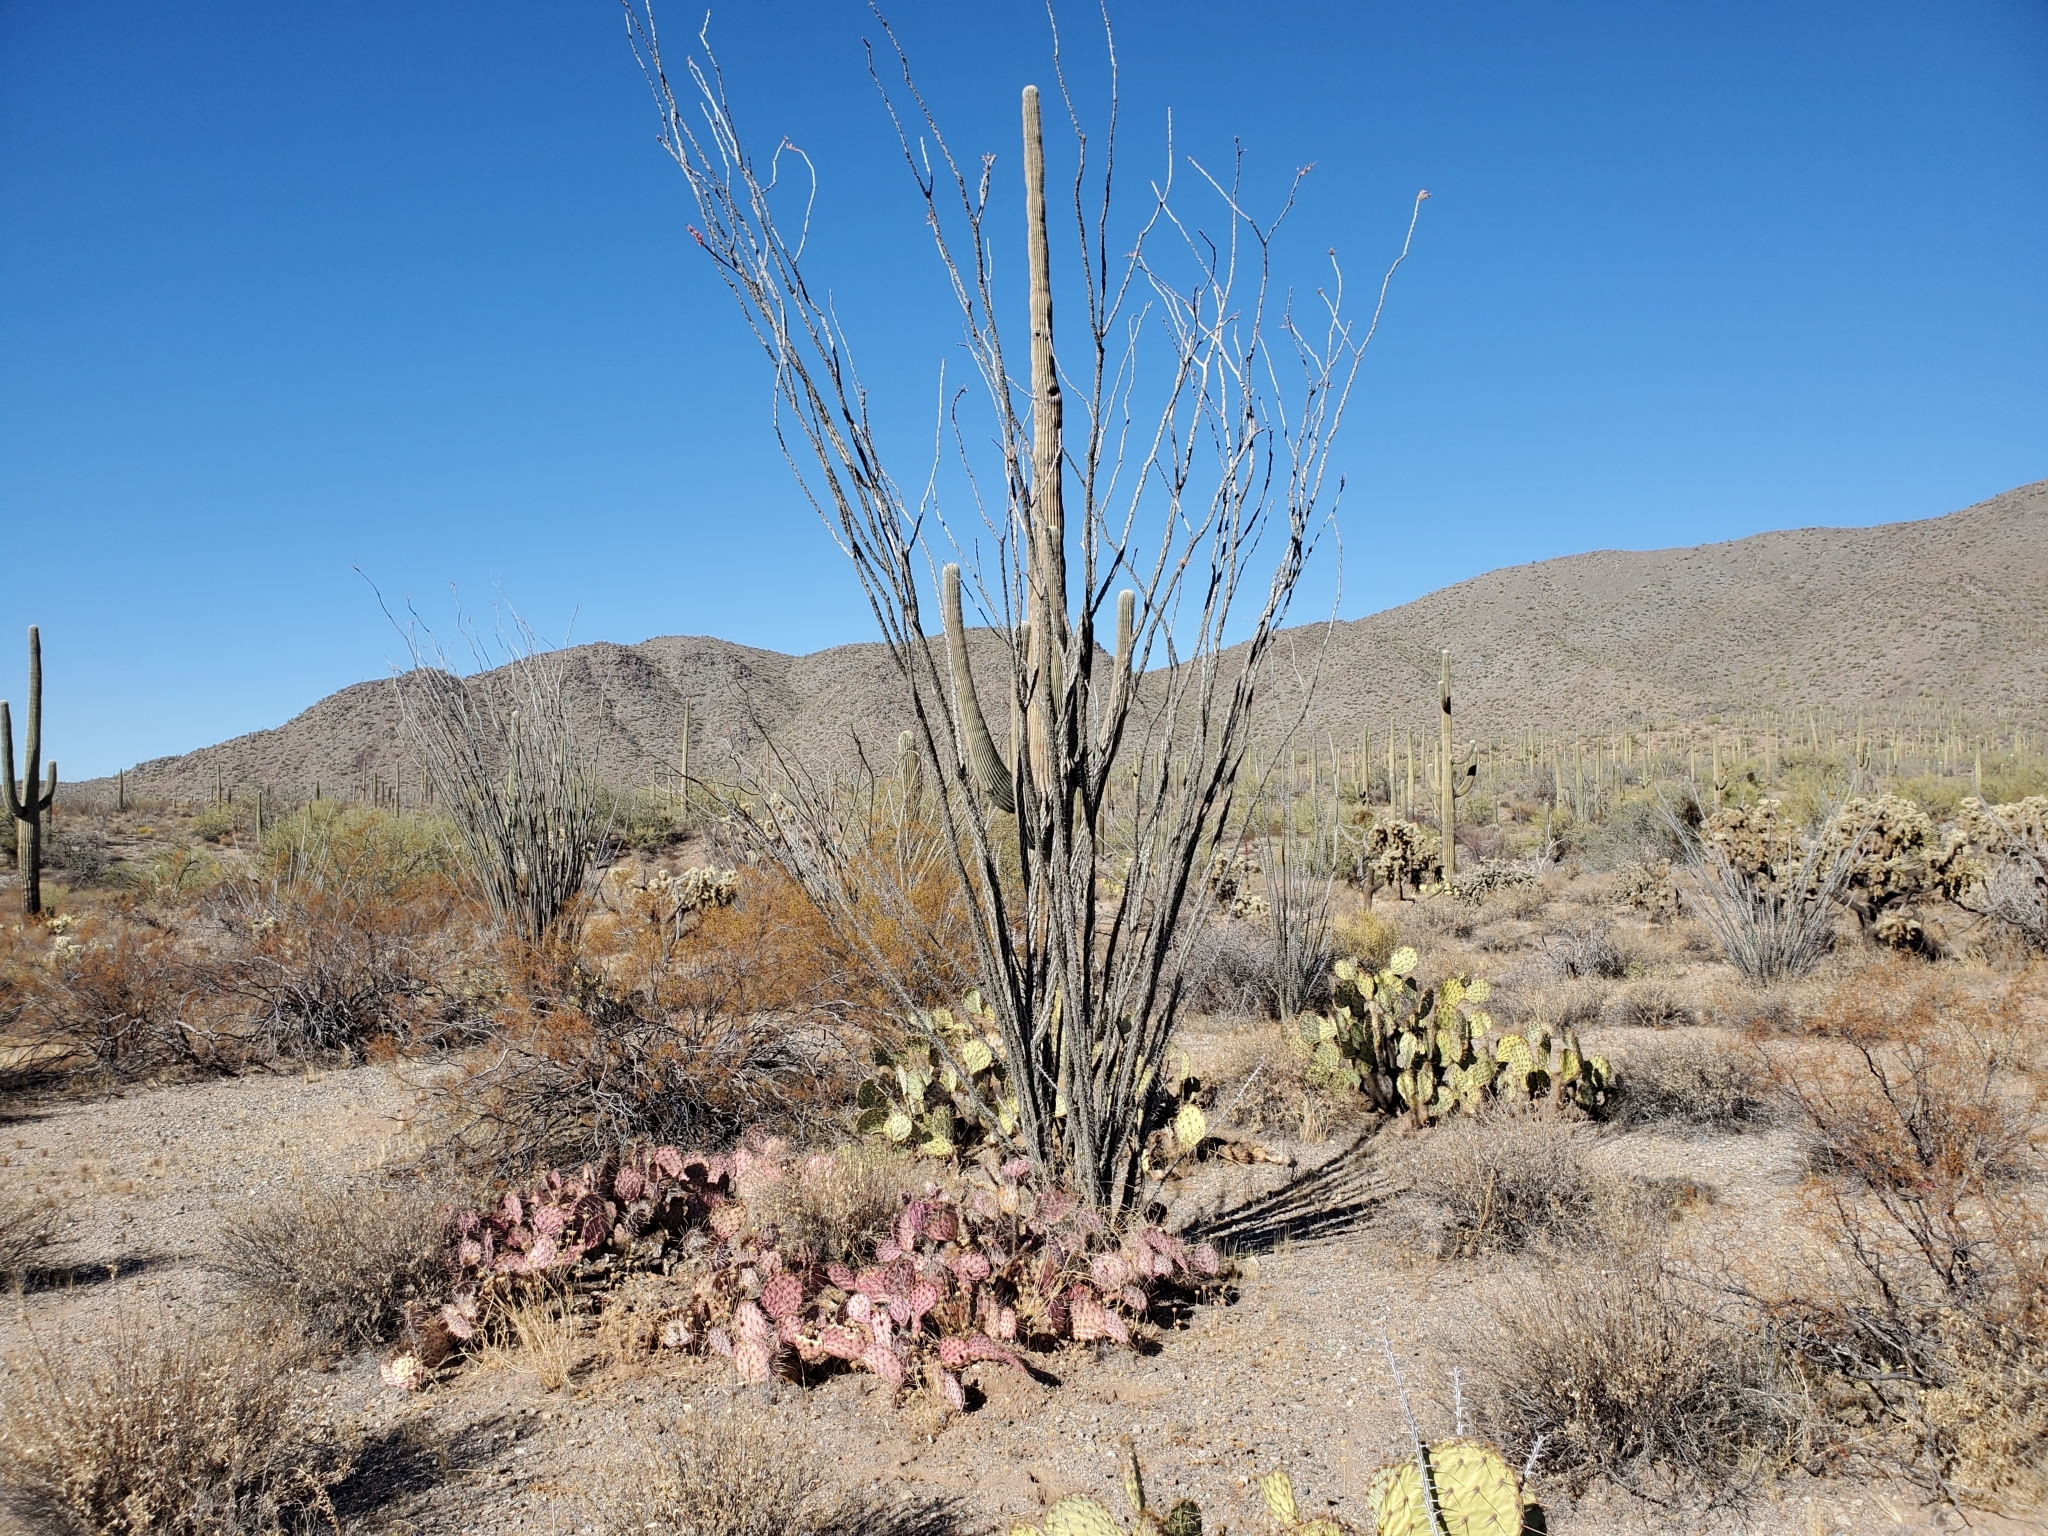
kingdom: Plantae
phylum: Tracheophyta
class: Magnoliopsida
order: Ericales
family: Fouquieriaceae
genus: Fouquieria
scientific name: Fouquieria splendens
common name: Vine-cactus
